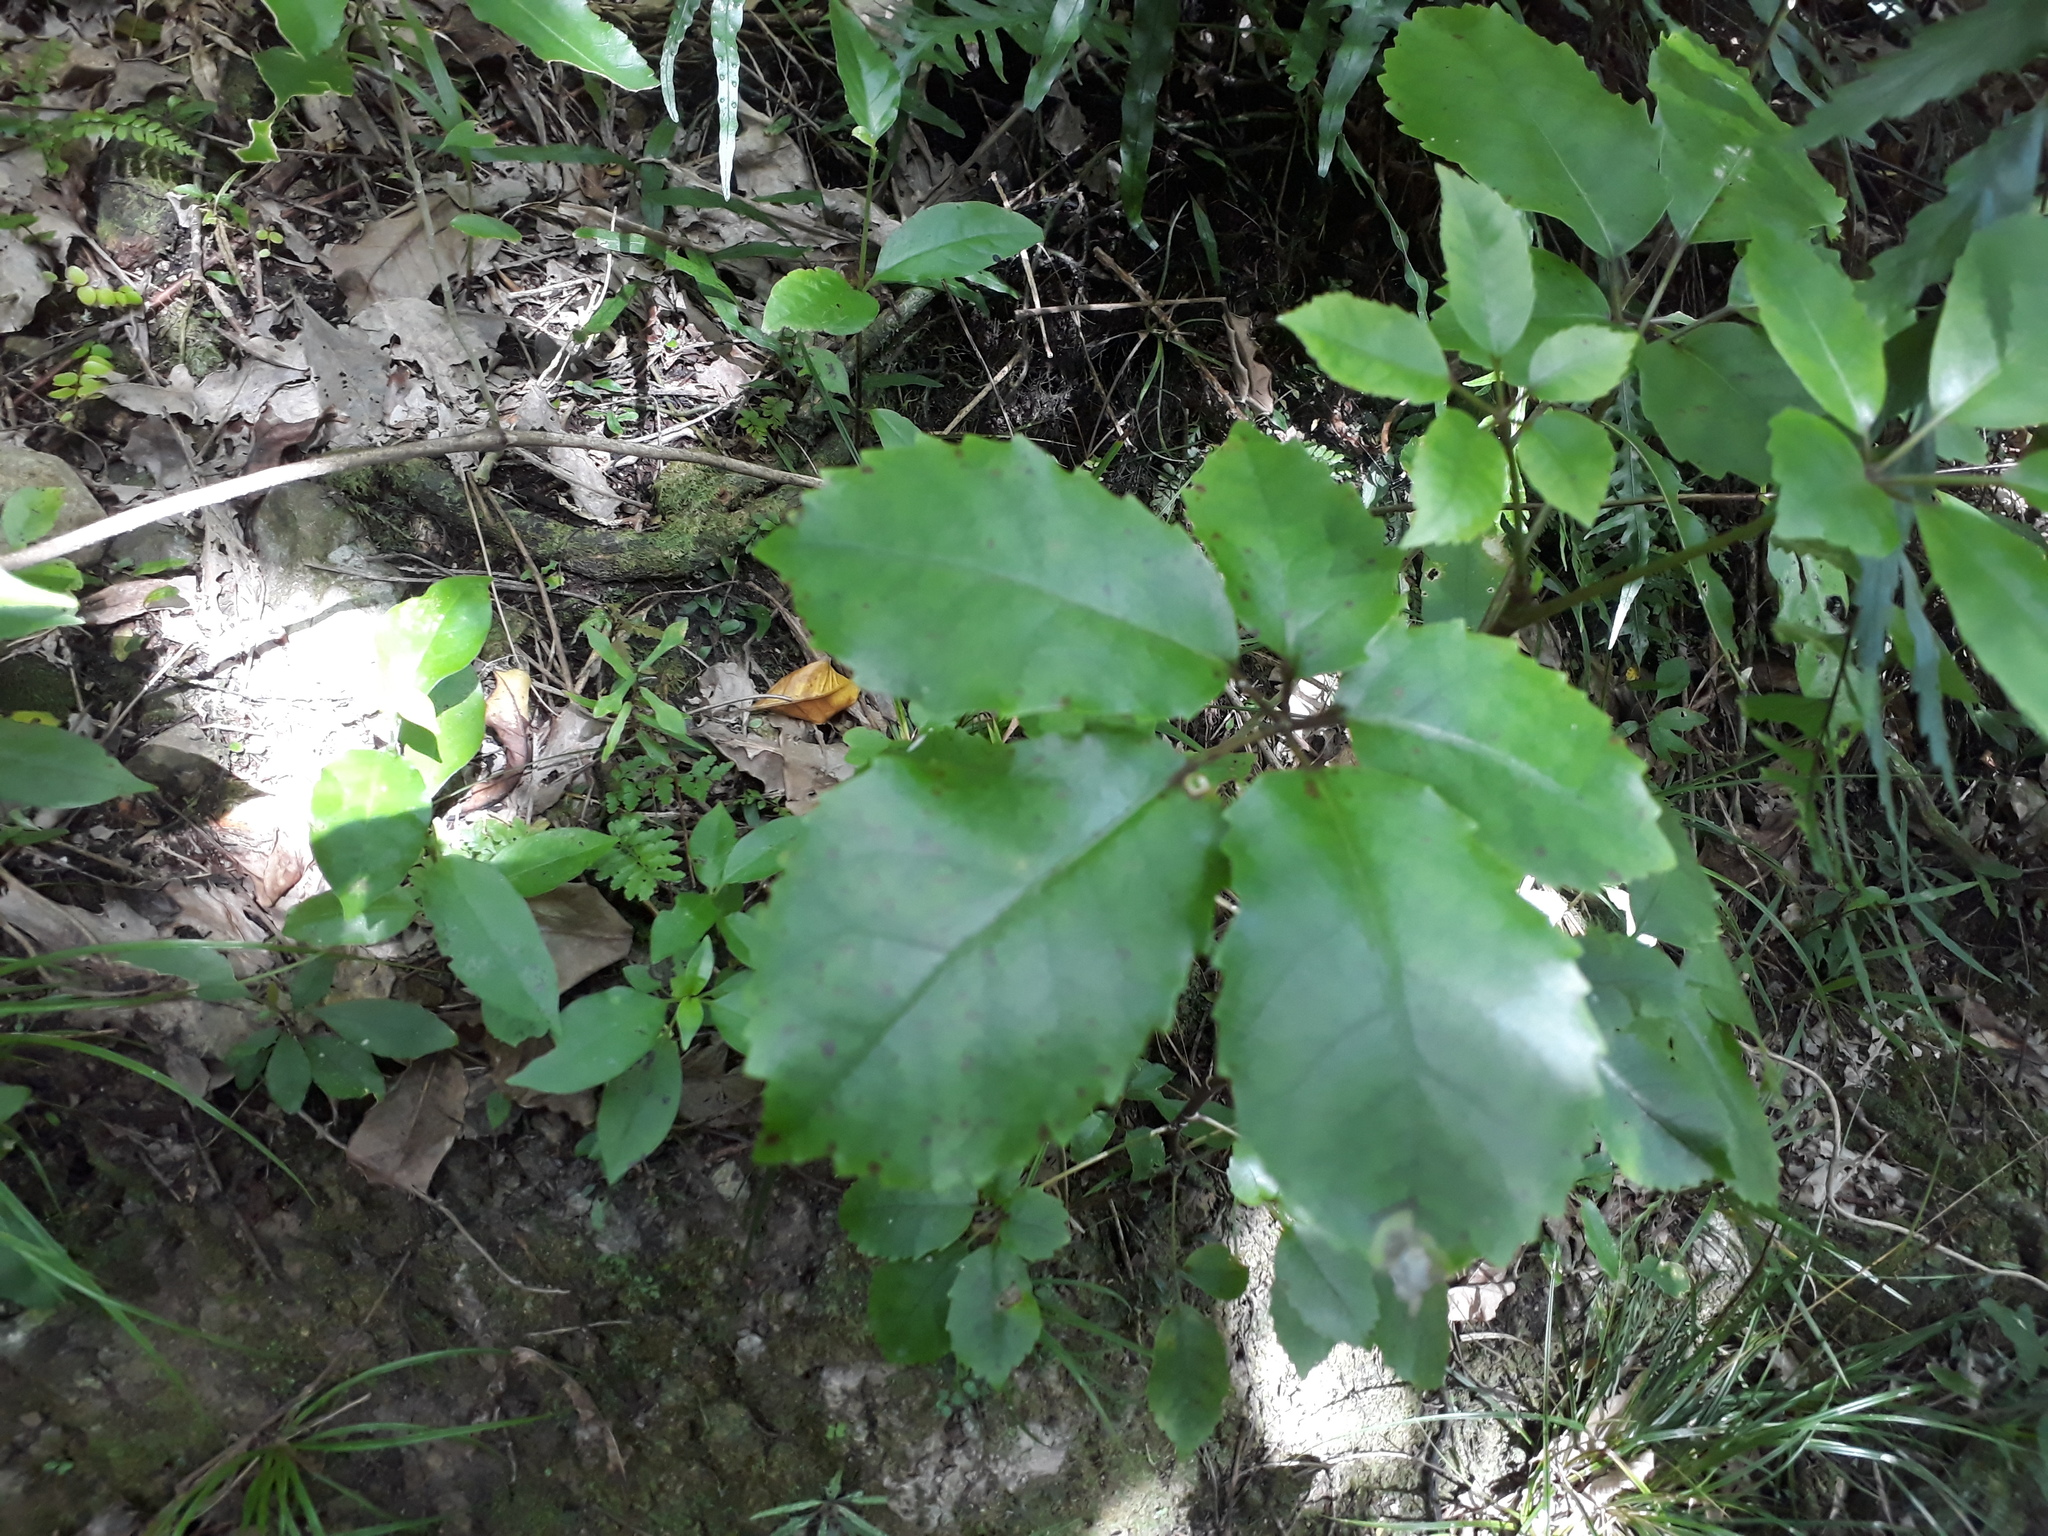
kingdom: Plantae
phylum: Tracheophyta
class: Magnoliopsida
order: Apiales
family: Araliaceae
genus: Neopanax
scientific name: Neopanax arboreus
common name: Five-fingers
